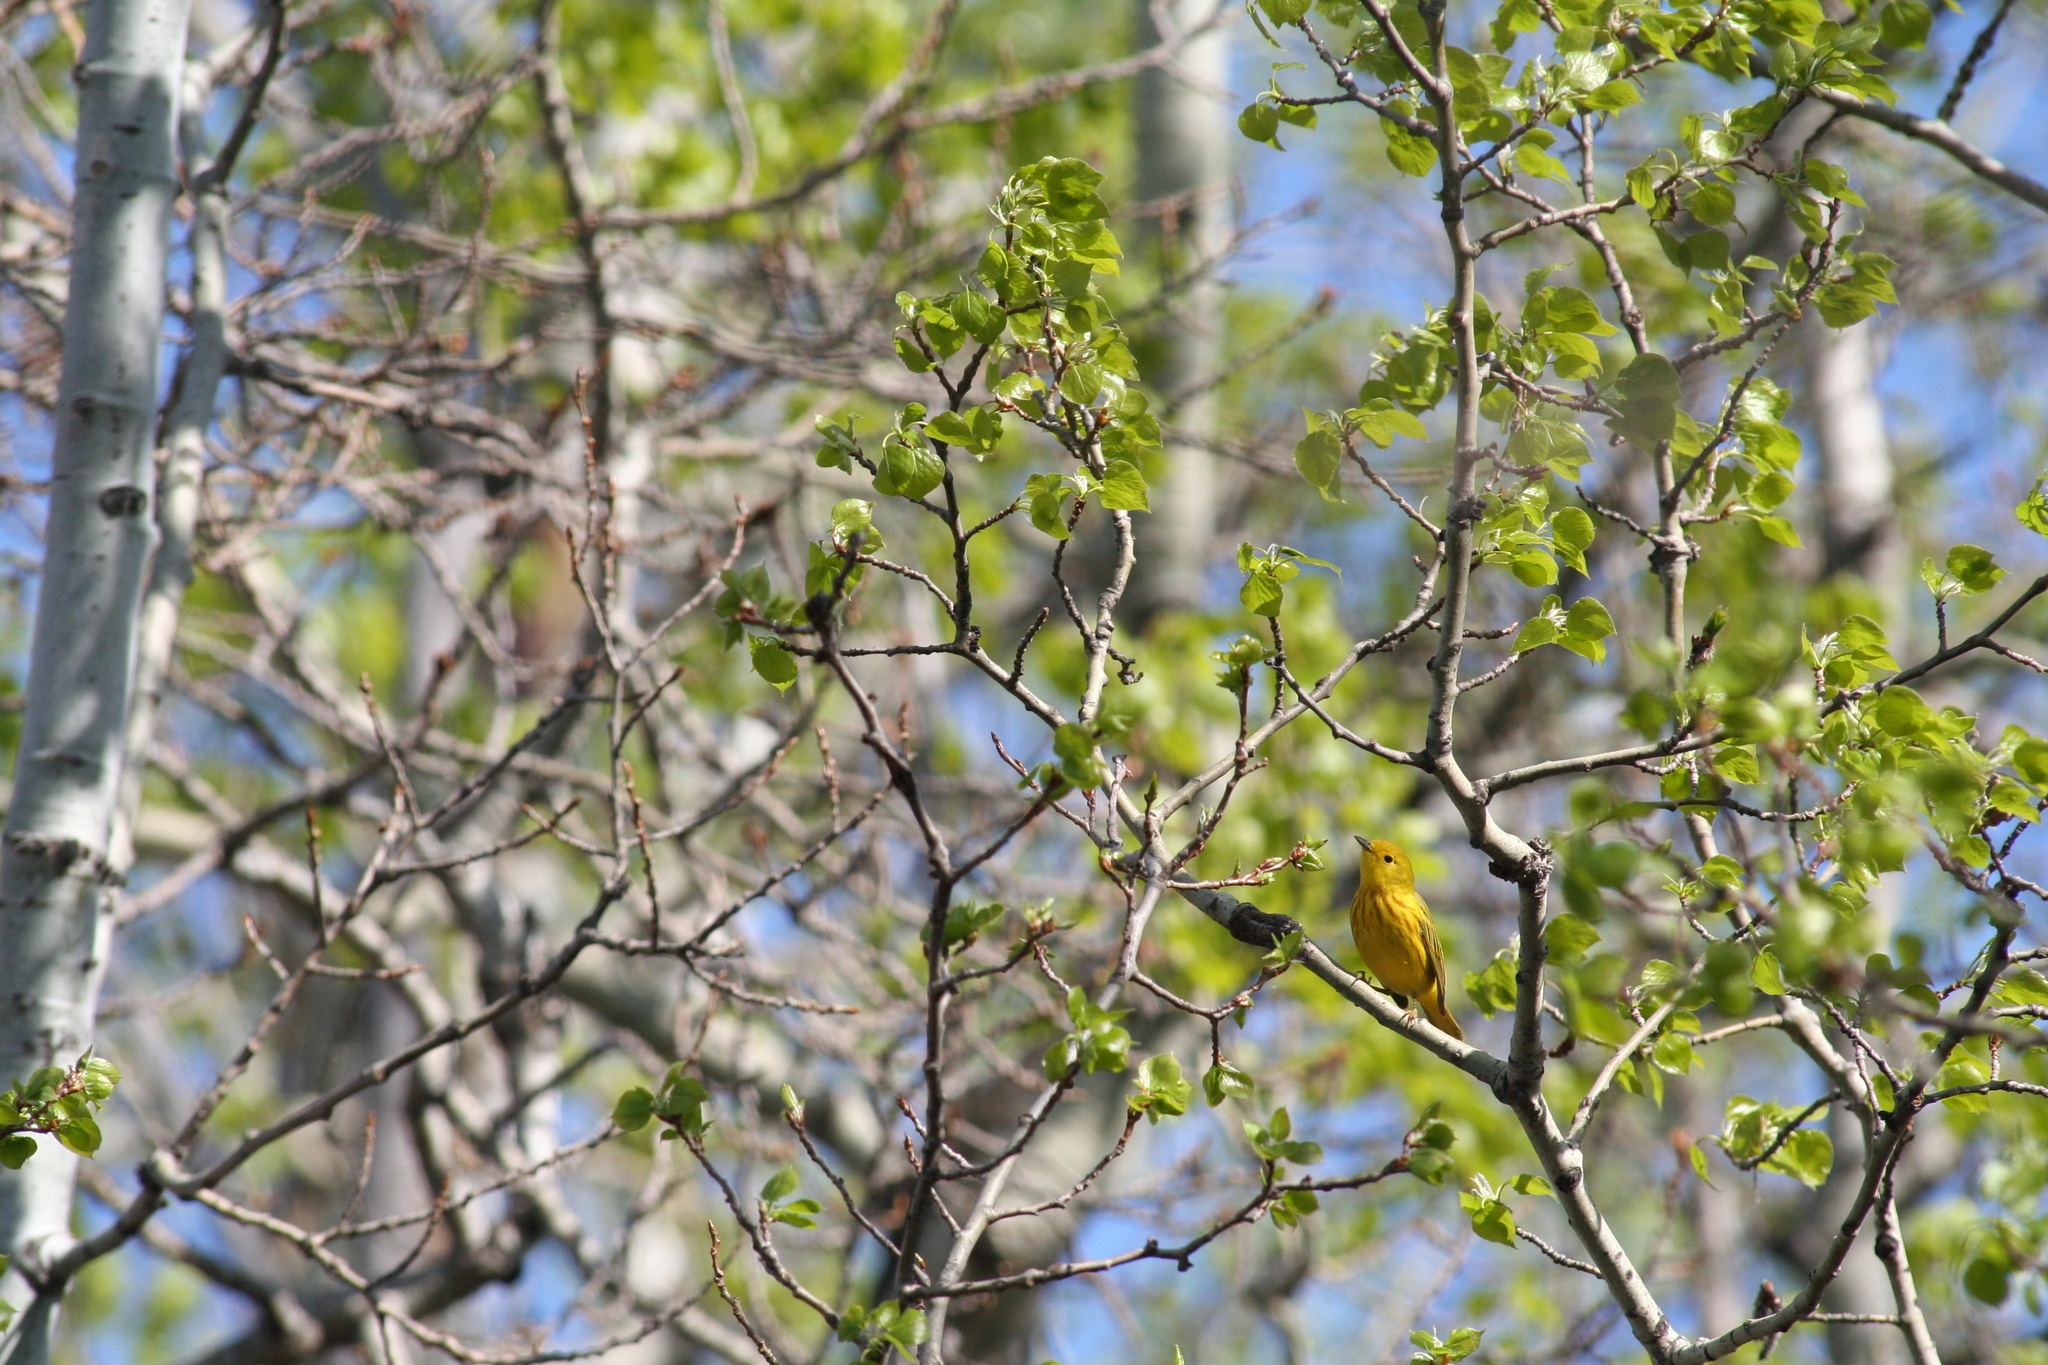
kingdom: Animalia
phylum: Chordata
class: Aves
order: Passeriformes
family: Parulidae
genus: Setophaga
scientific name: Setophaga petechia
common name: Yellow warbler
